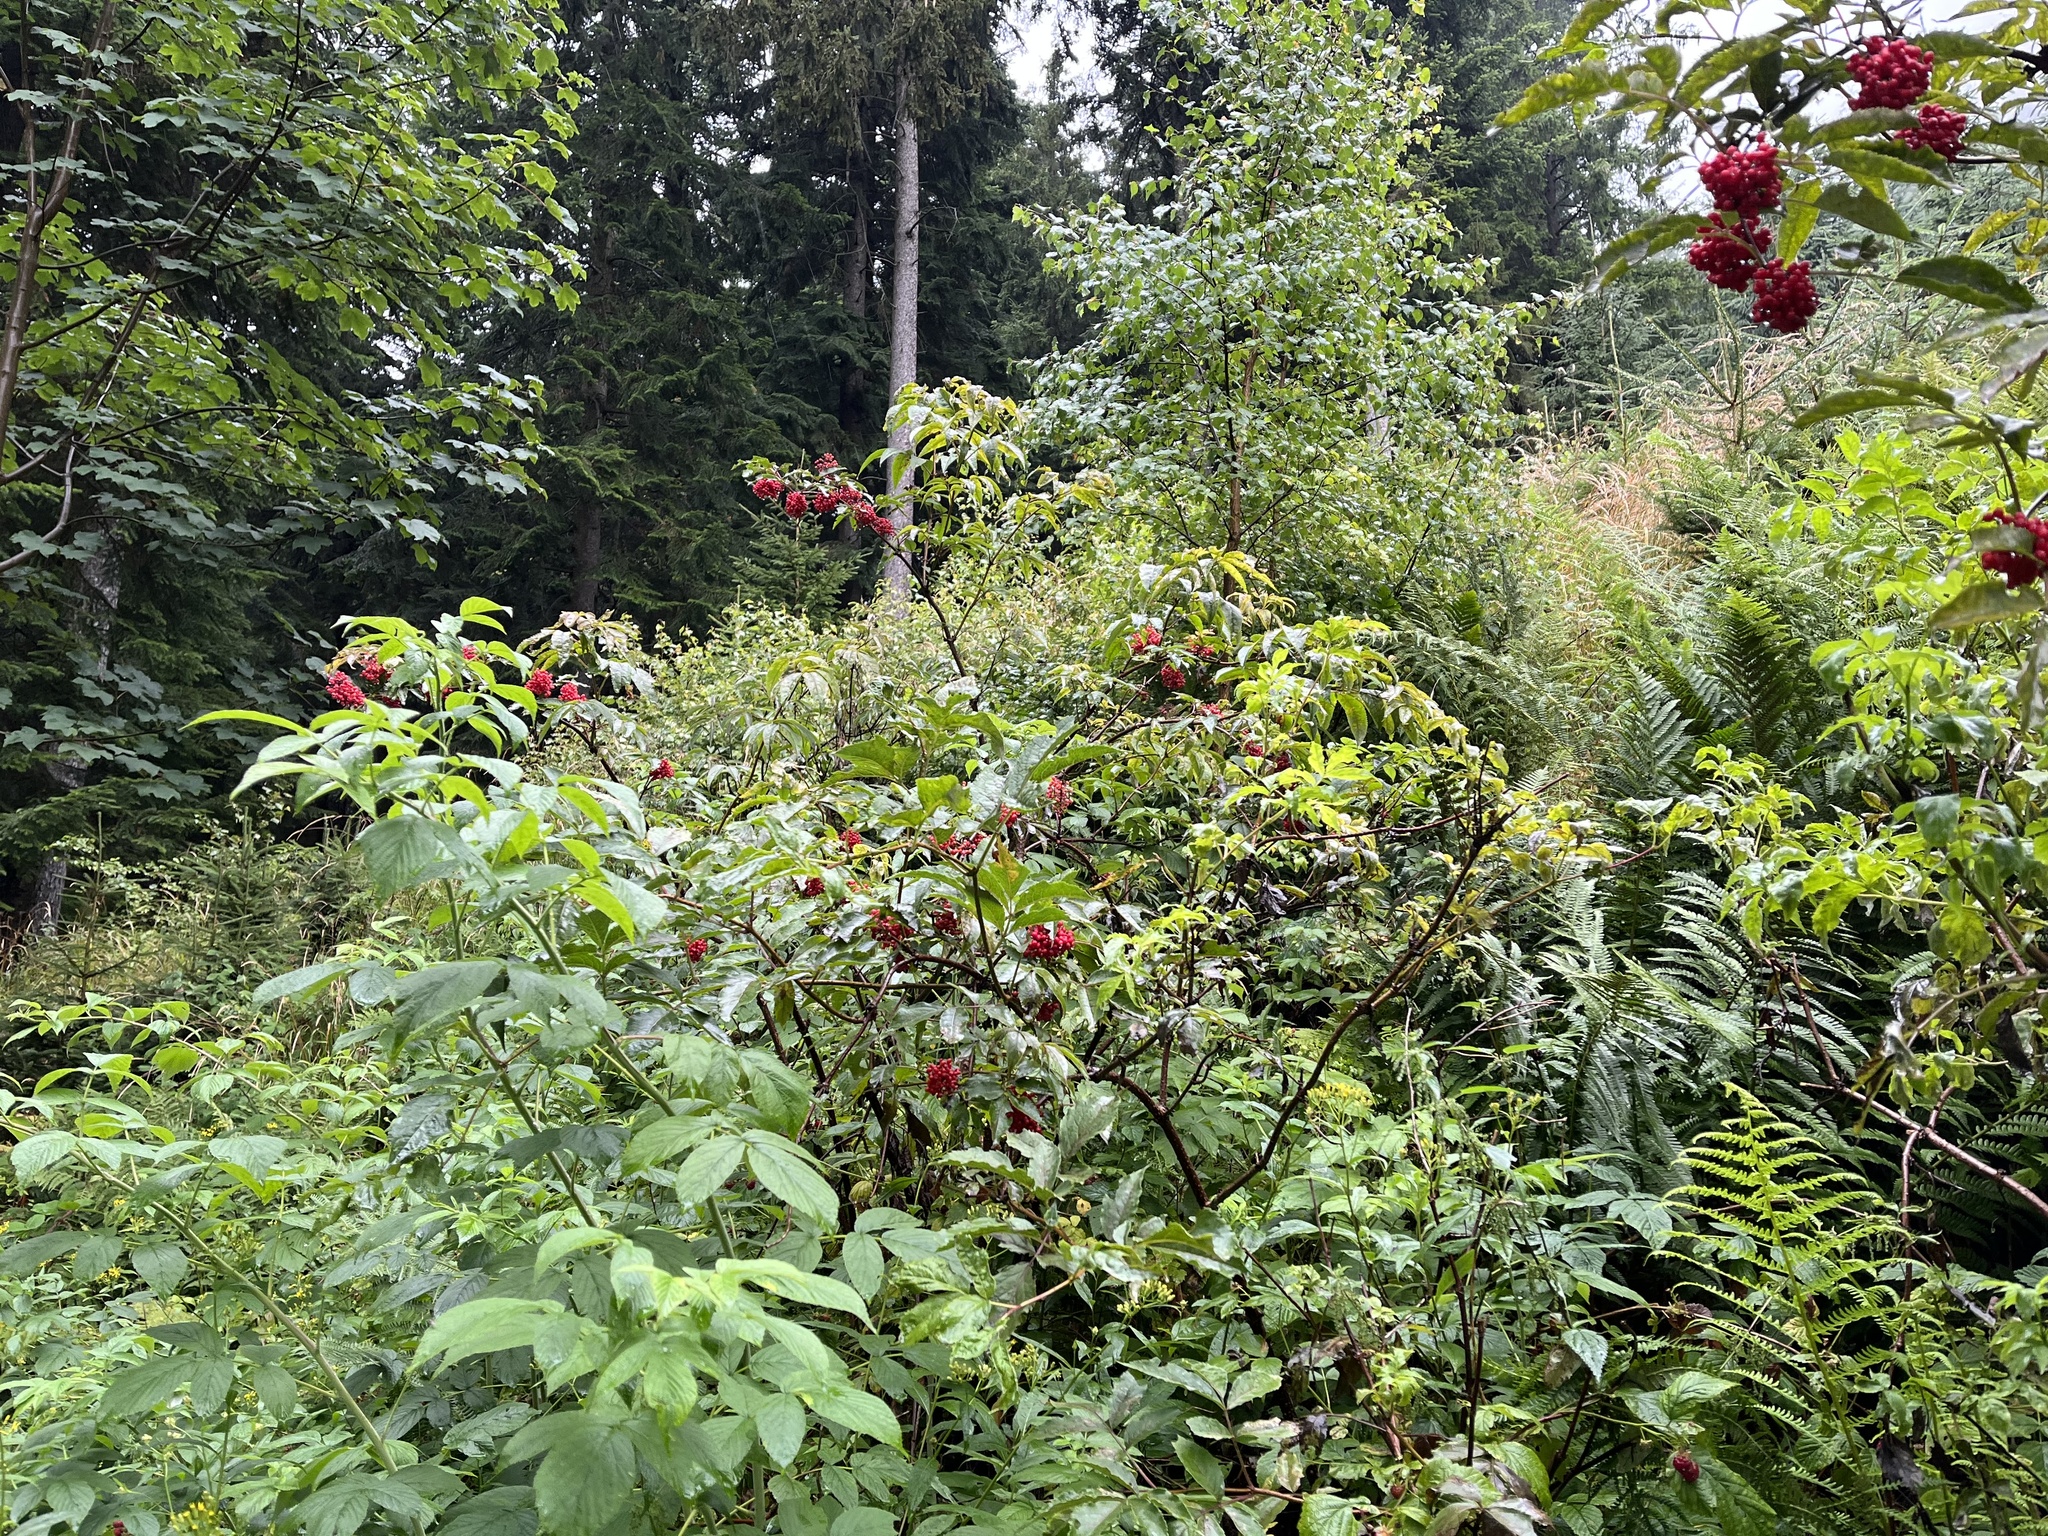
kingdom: Plantae
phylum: Tracheophyta
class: Magnoliopsida
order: Dipsacales
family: Viburnaceae
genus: Sambucus
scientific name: Sambucus racemosa
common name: Red-berried elder
